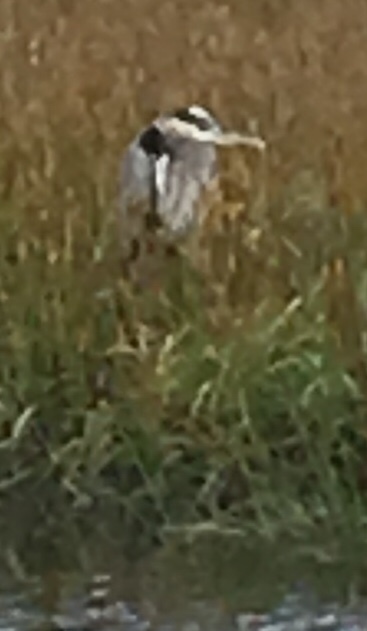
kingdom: Animalia
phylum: Chordata
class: Aves
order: Pelecaniformes
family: Ardeidae
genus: Ardea
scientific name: Ardea herodias
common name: Great blue heron
